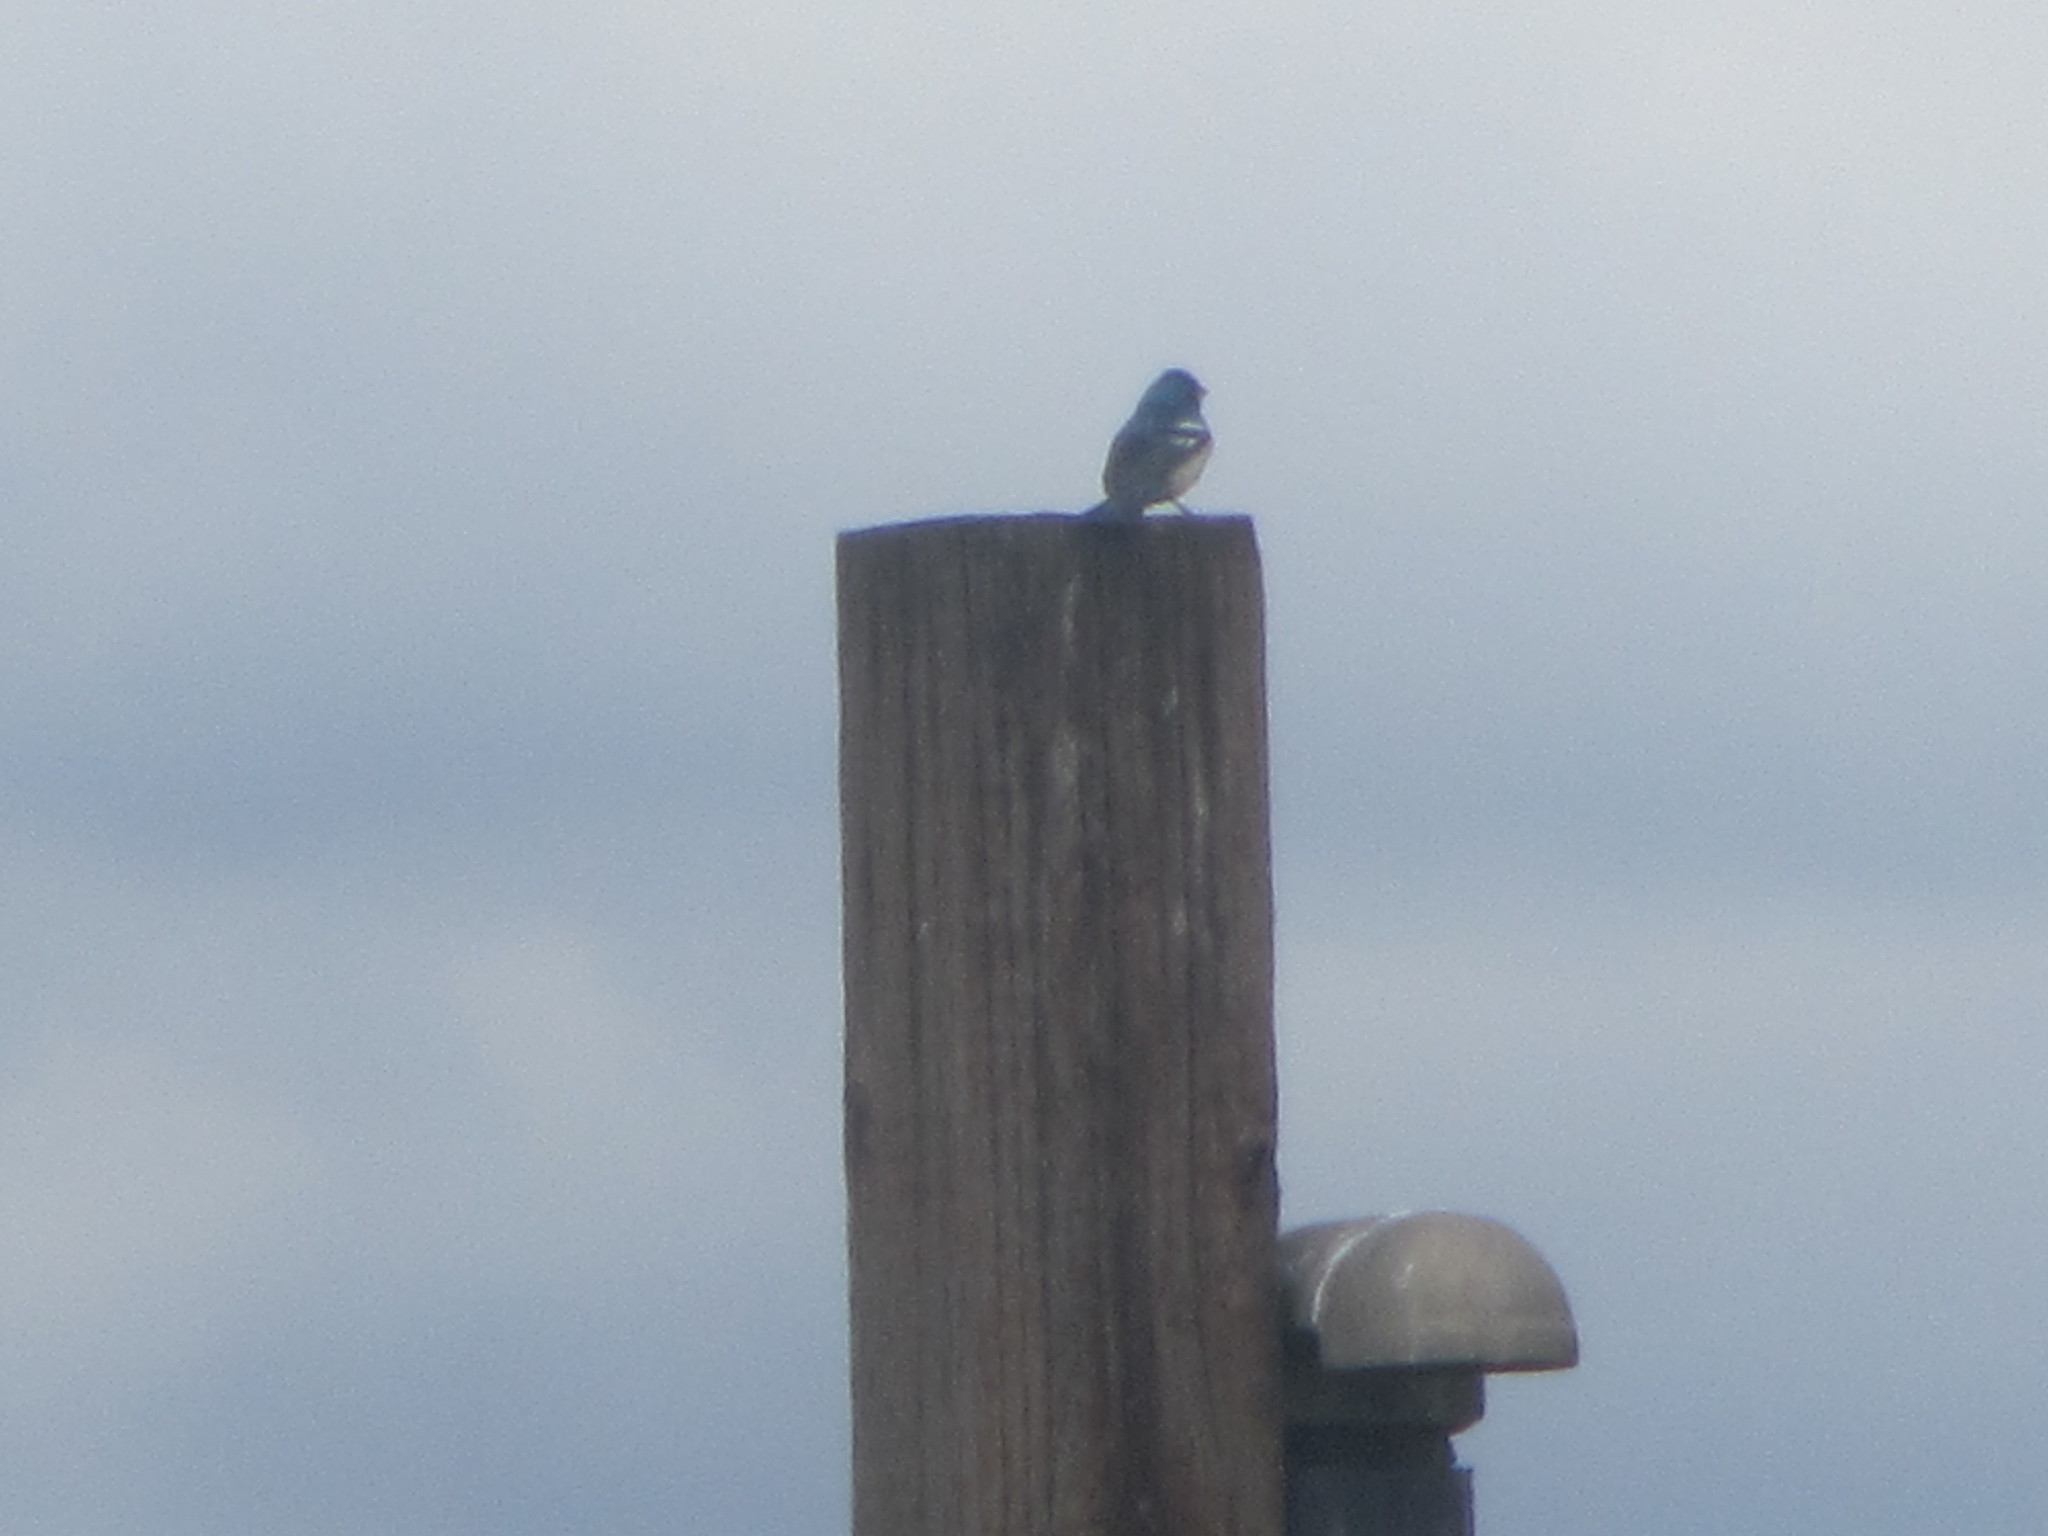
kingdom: Animalia
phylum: Chordata
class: Aves
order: Passeriformes
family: Cardinalidae
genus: Passerina
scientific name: Passerina amoena
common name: Lazuli bunting
